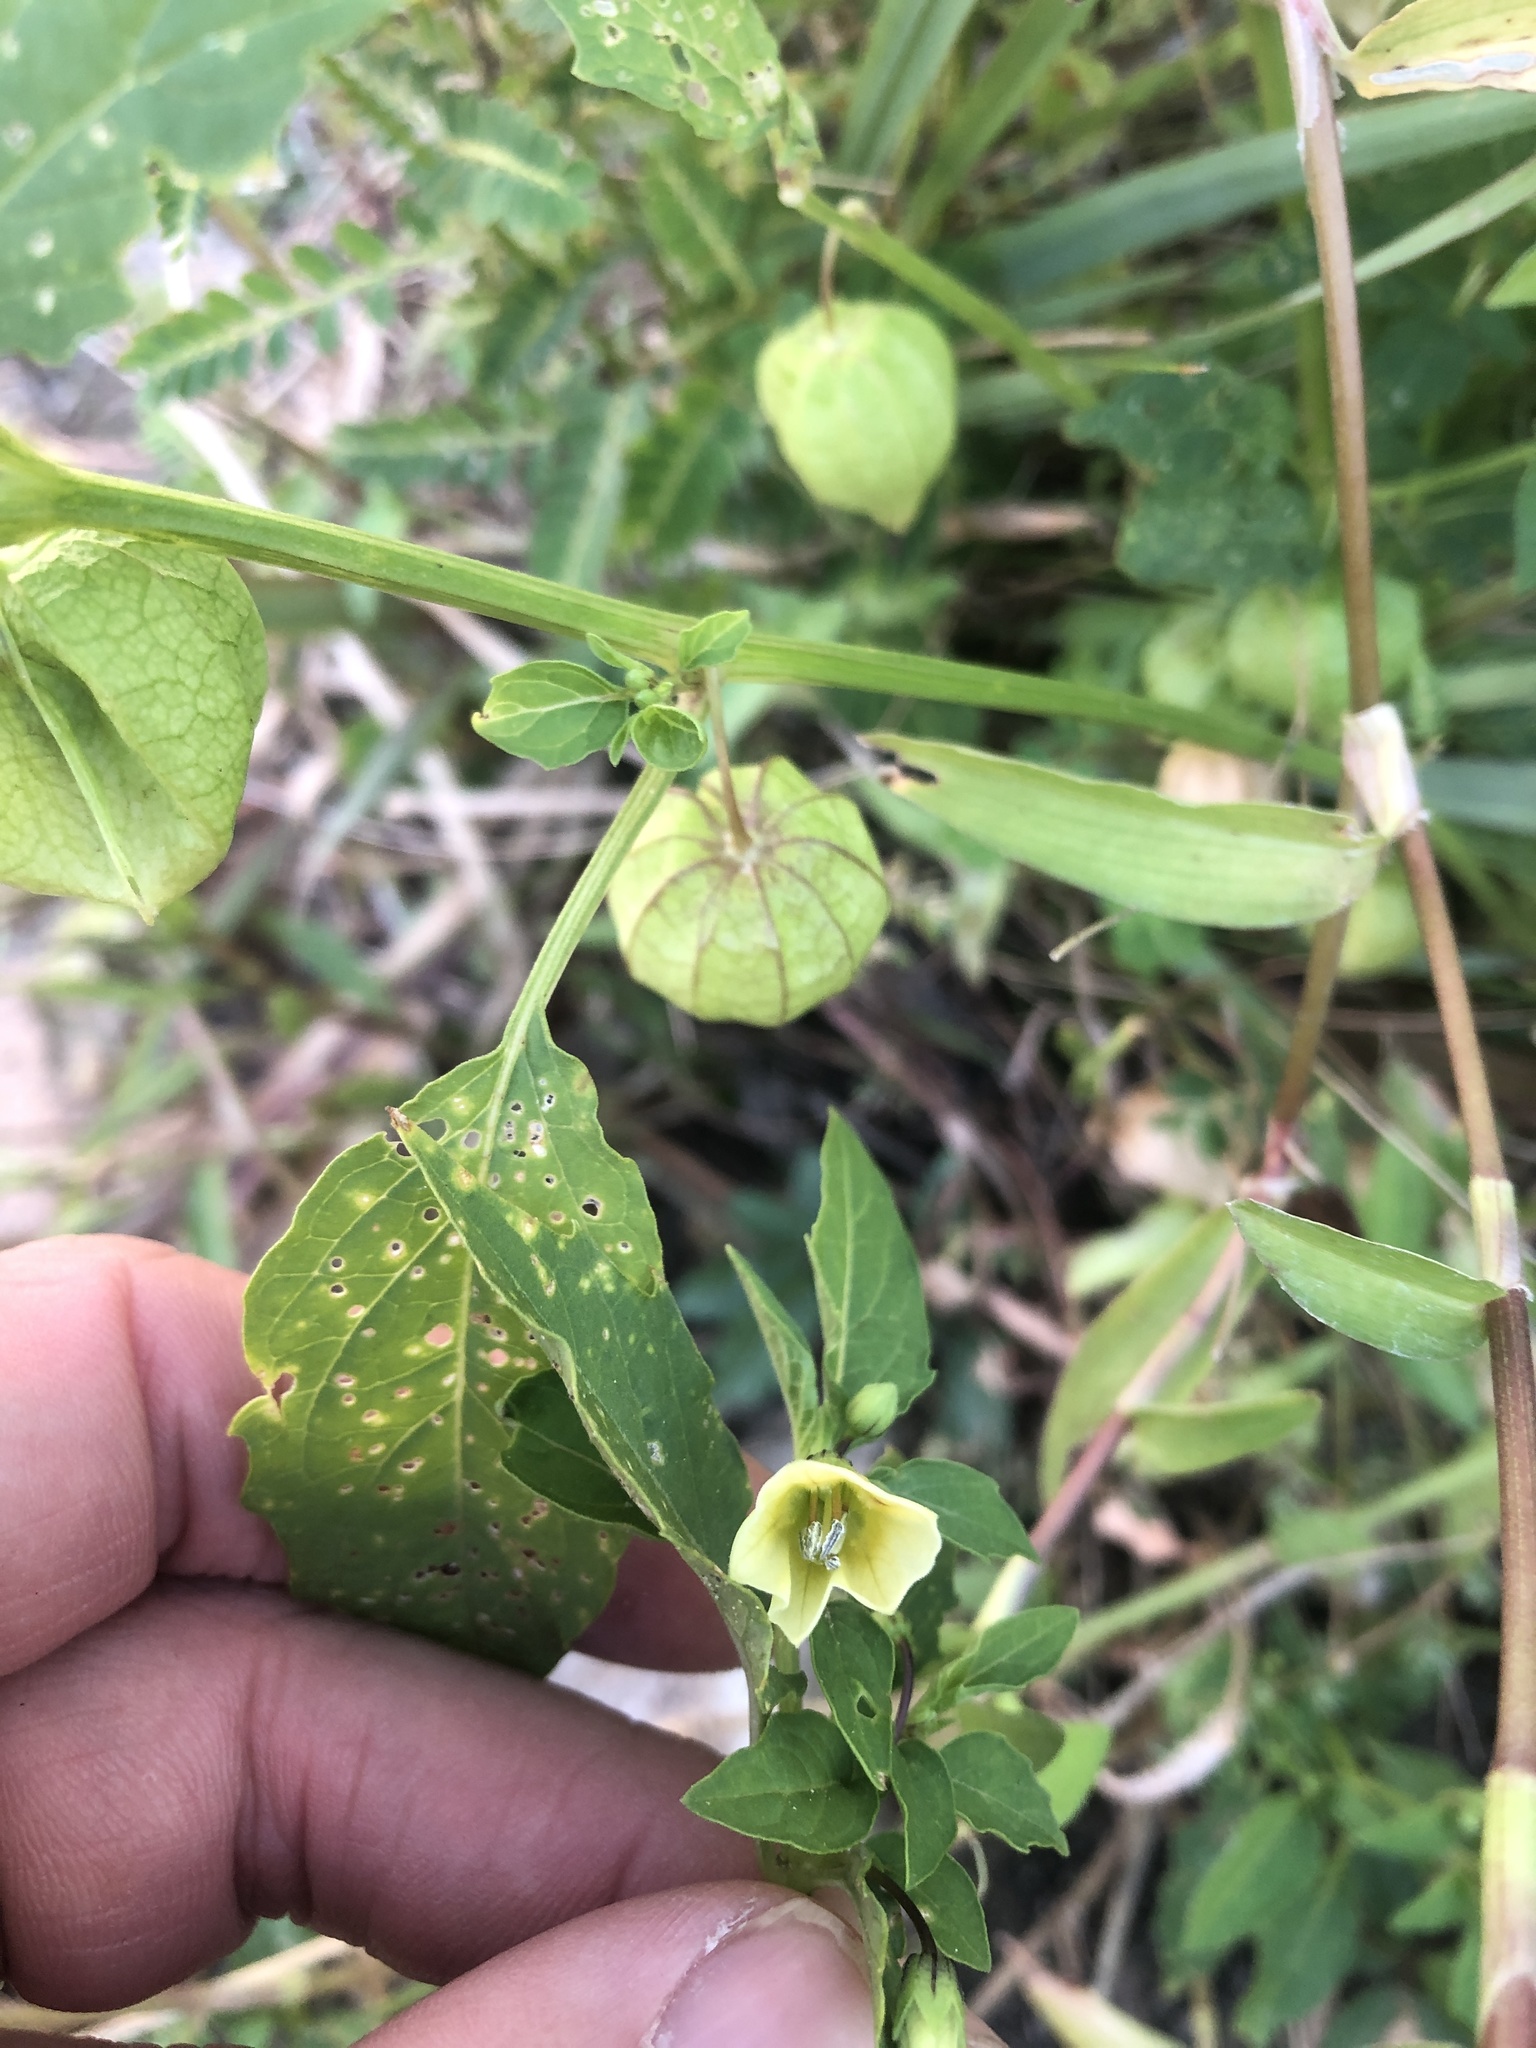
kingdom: Plantae
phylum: Tracheophyta
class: Magnoliopsida
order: Solanales
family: Solanaceae
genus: Physalis
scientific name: Physalis angulata
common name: Angular winter-cherry
